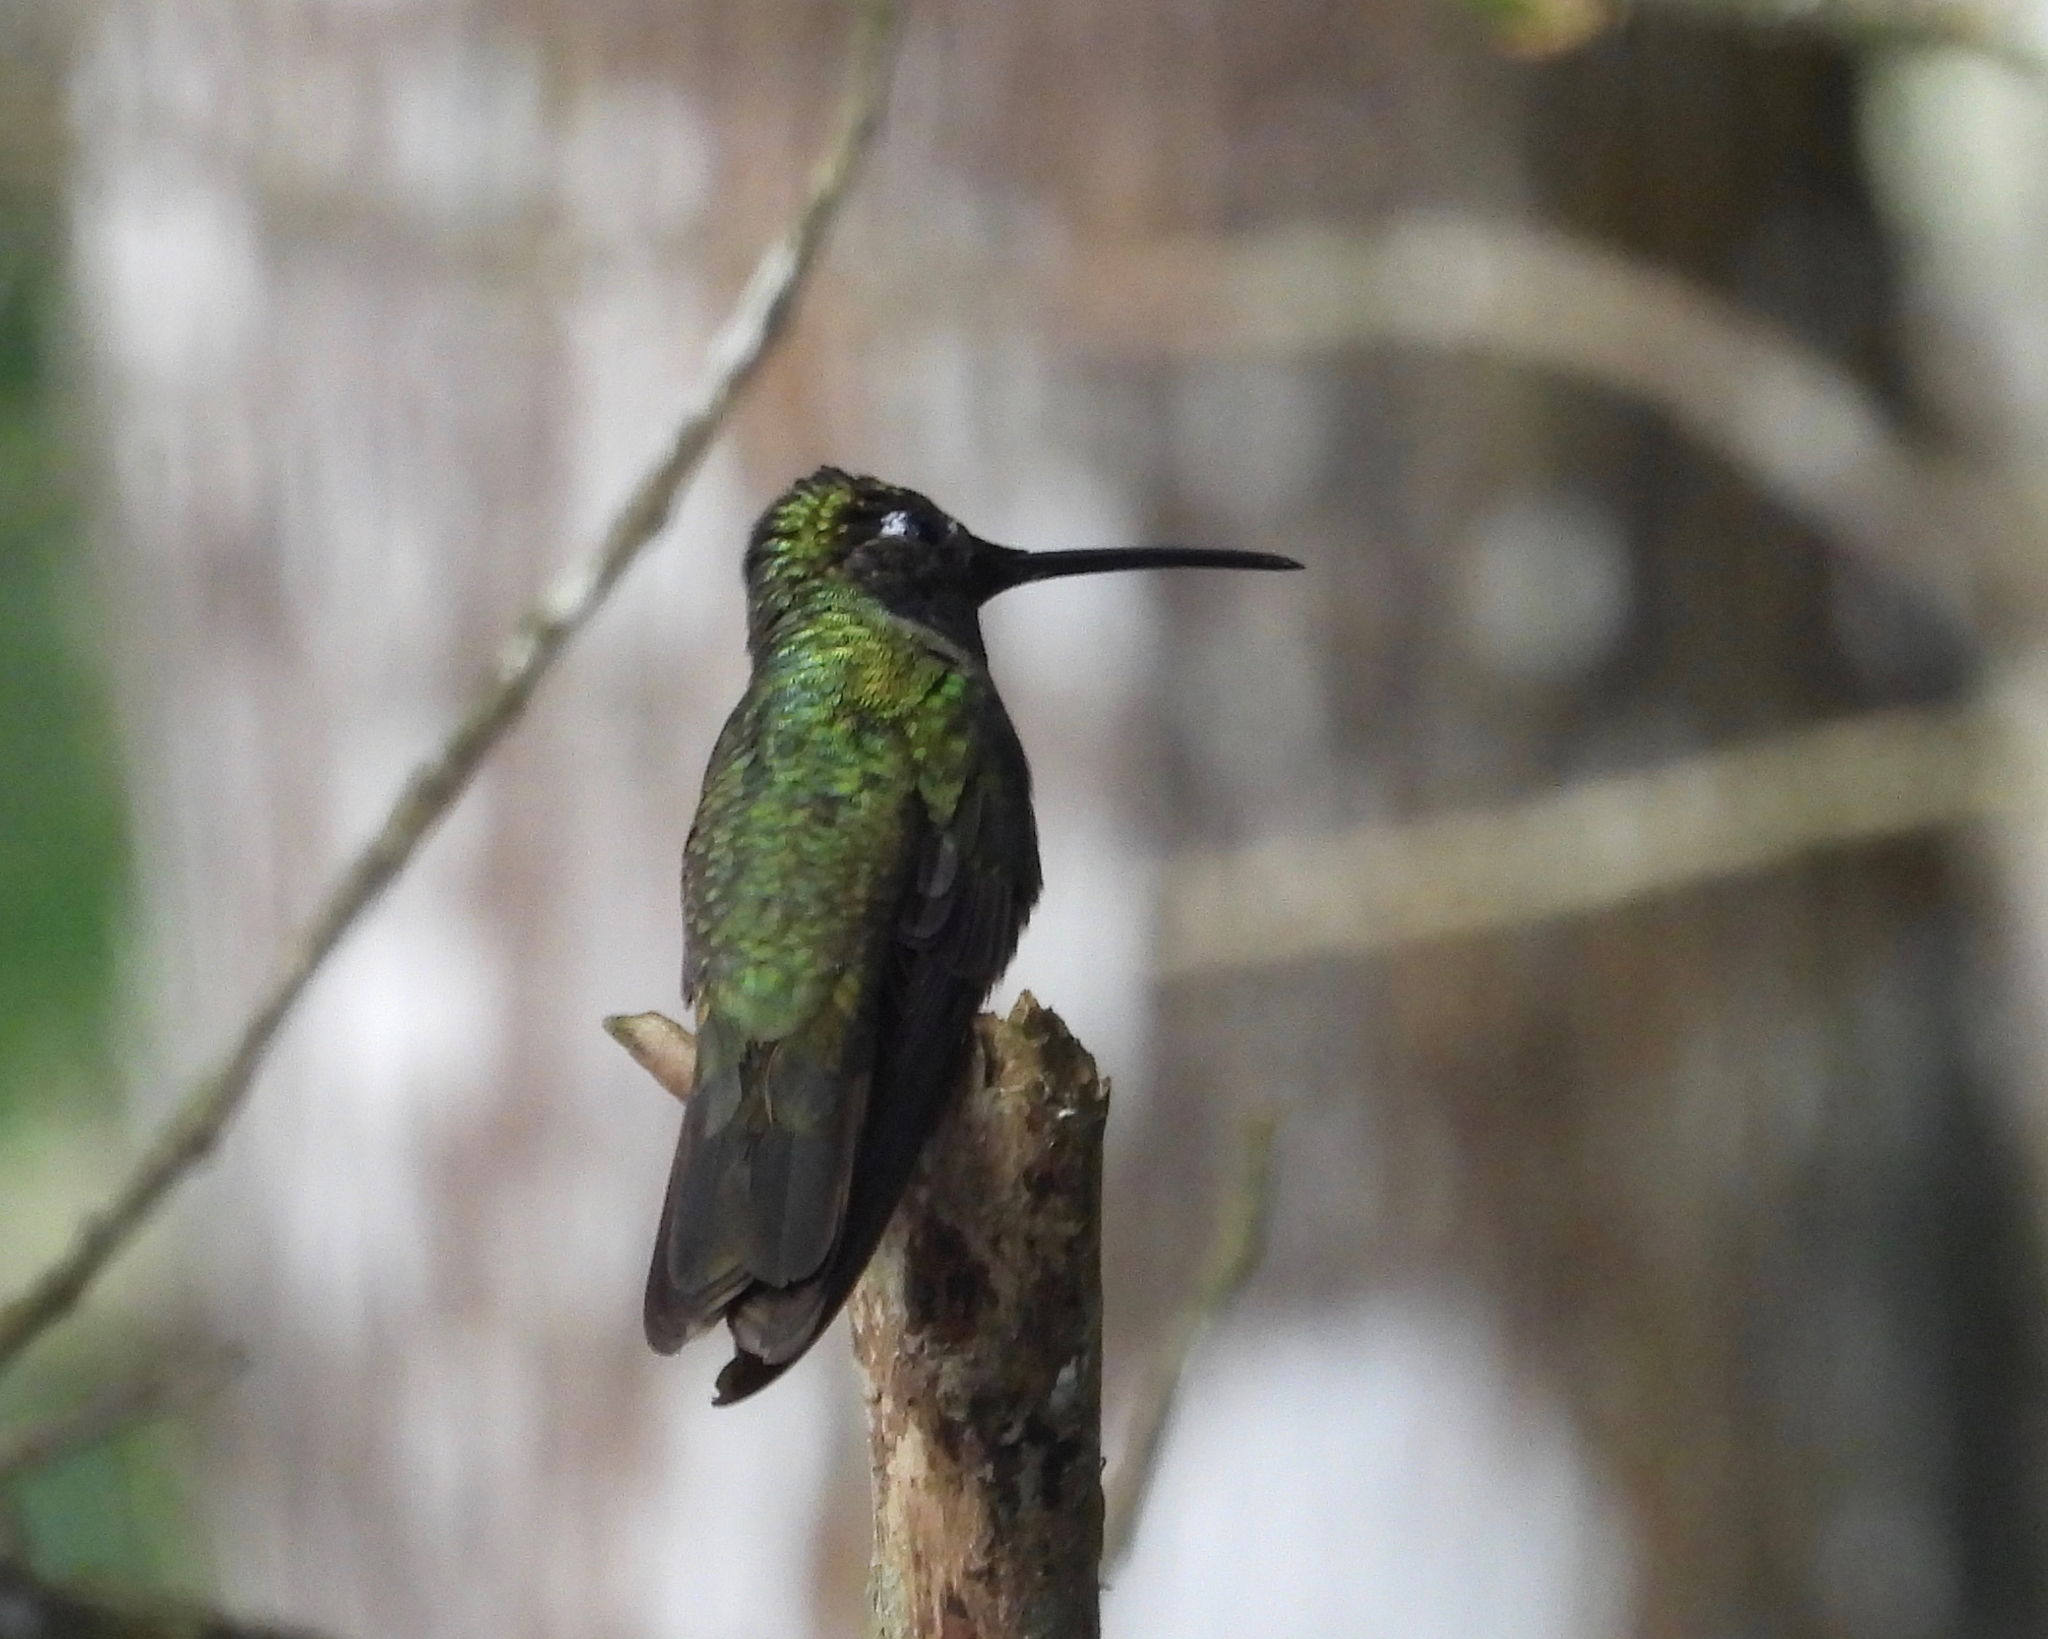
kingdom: Animalia
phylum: Chordata
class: Aves
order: Apodiformes
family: Trochilidae
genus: Eugenes
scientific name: Eugenes fulgens
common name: Magnificent hummingbird
